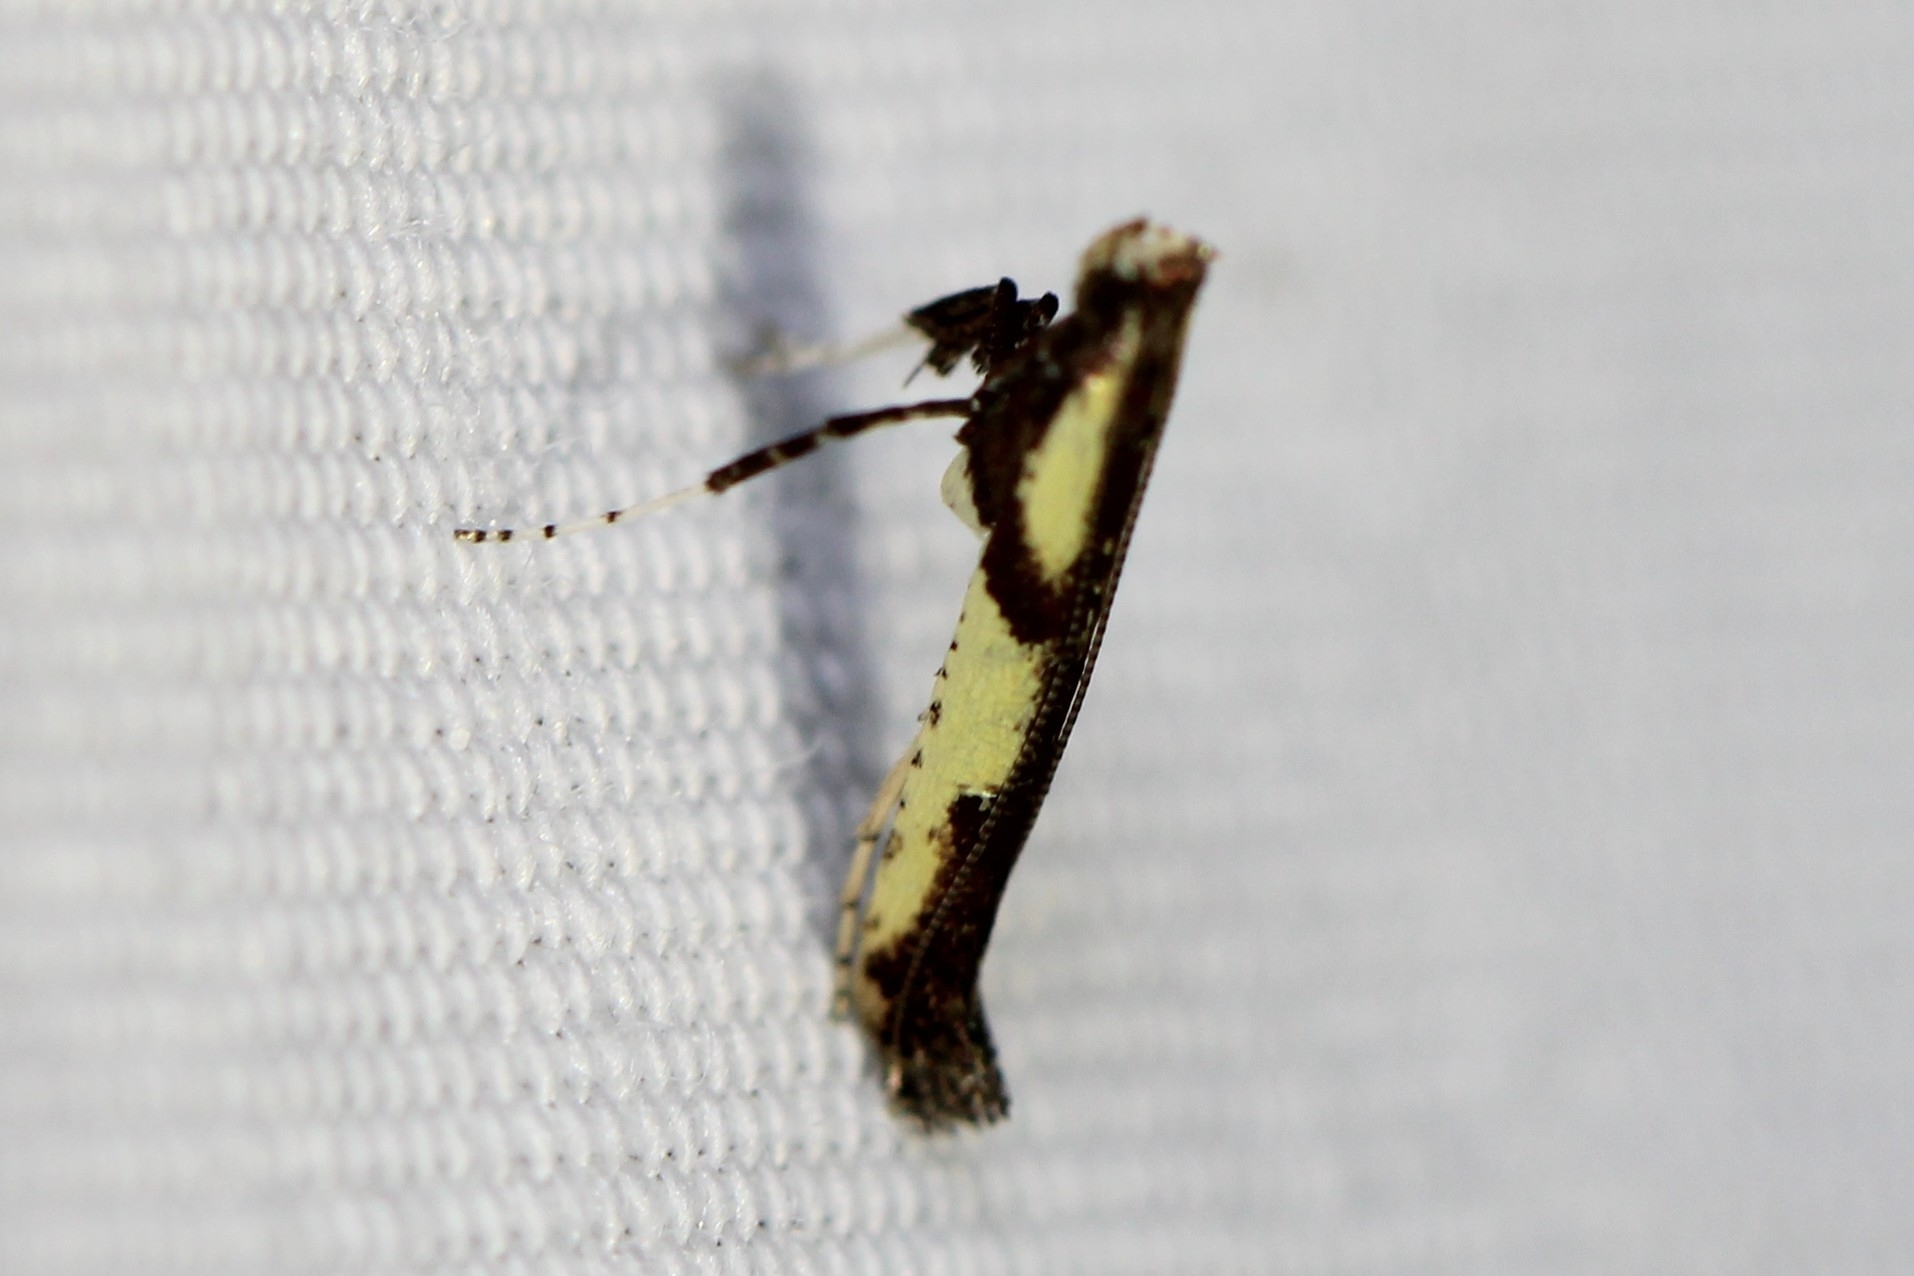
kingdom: Animalia
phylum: Arthropoda
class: Insecta
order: Lepidoptera
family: Gracillariidae
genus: Caloptilia
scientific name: Caloptilia blandella
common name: Walnut caloptilia moth
